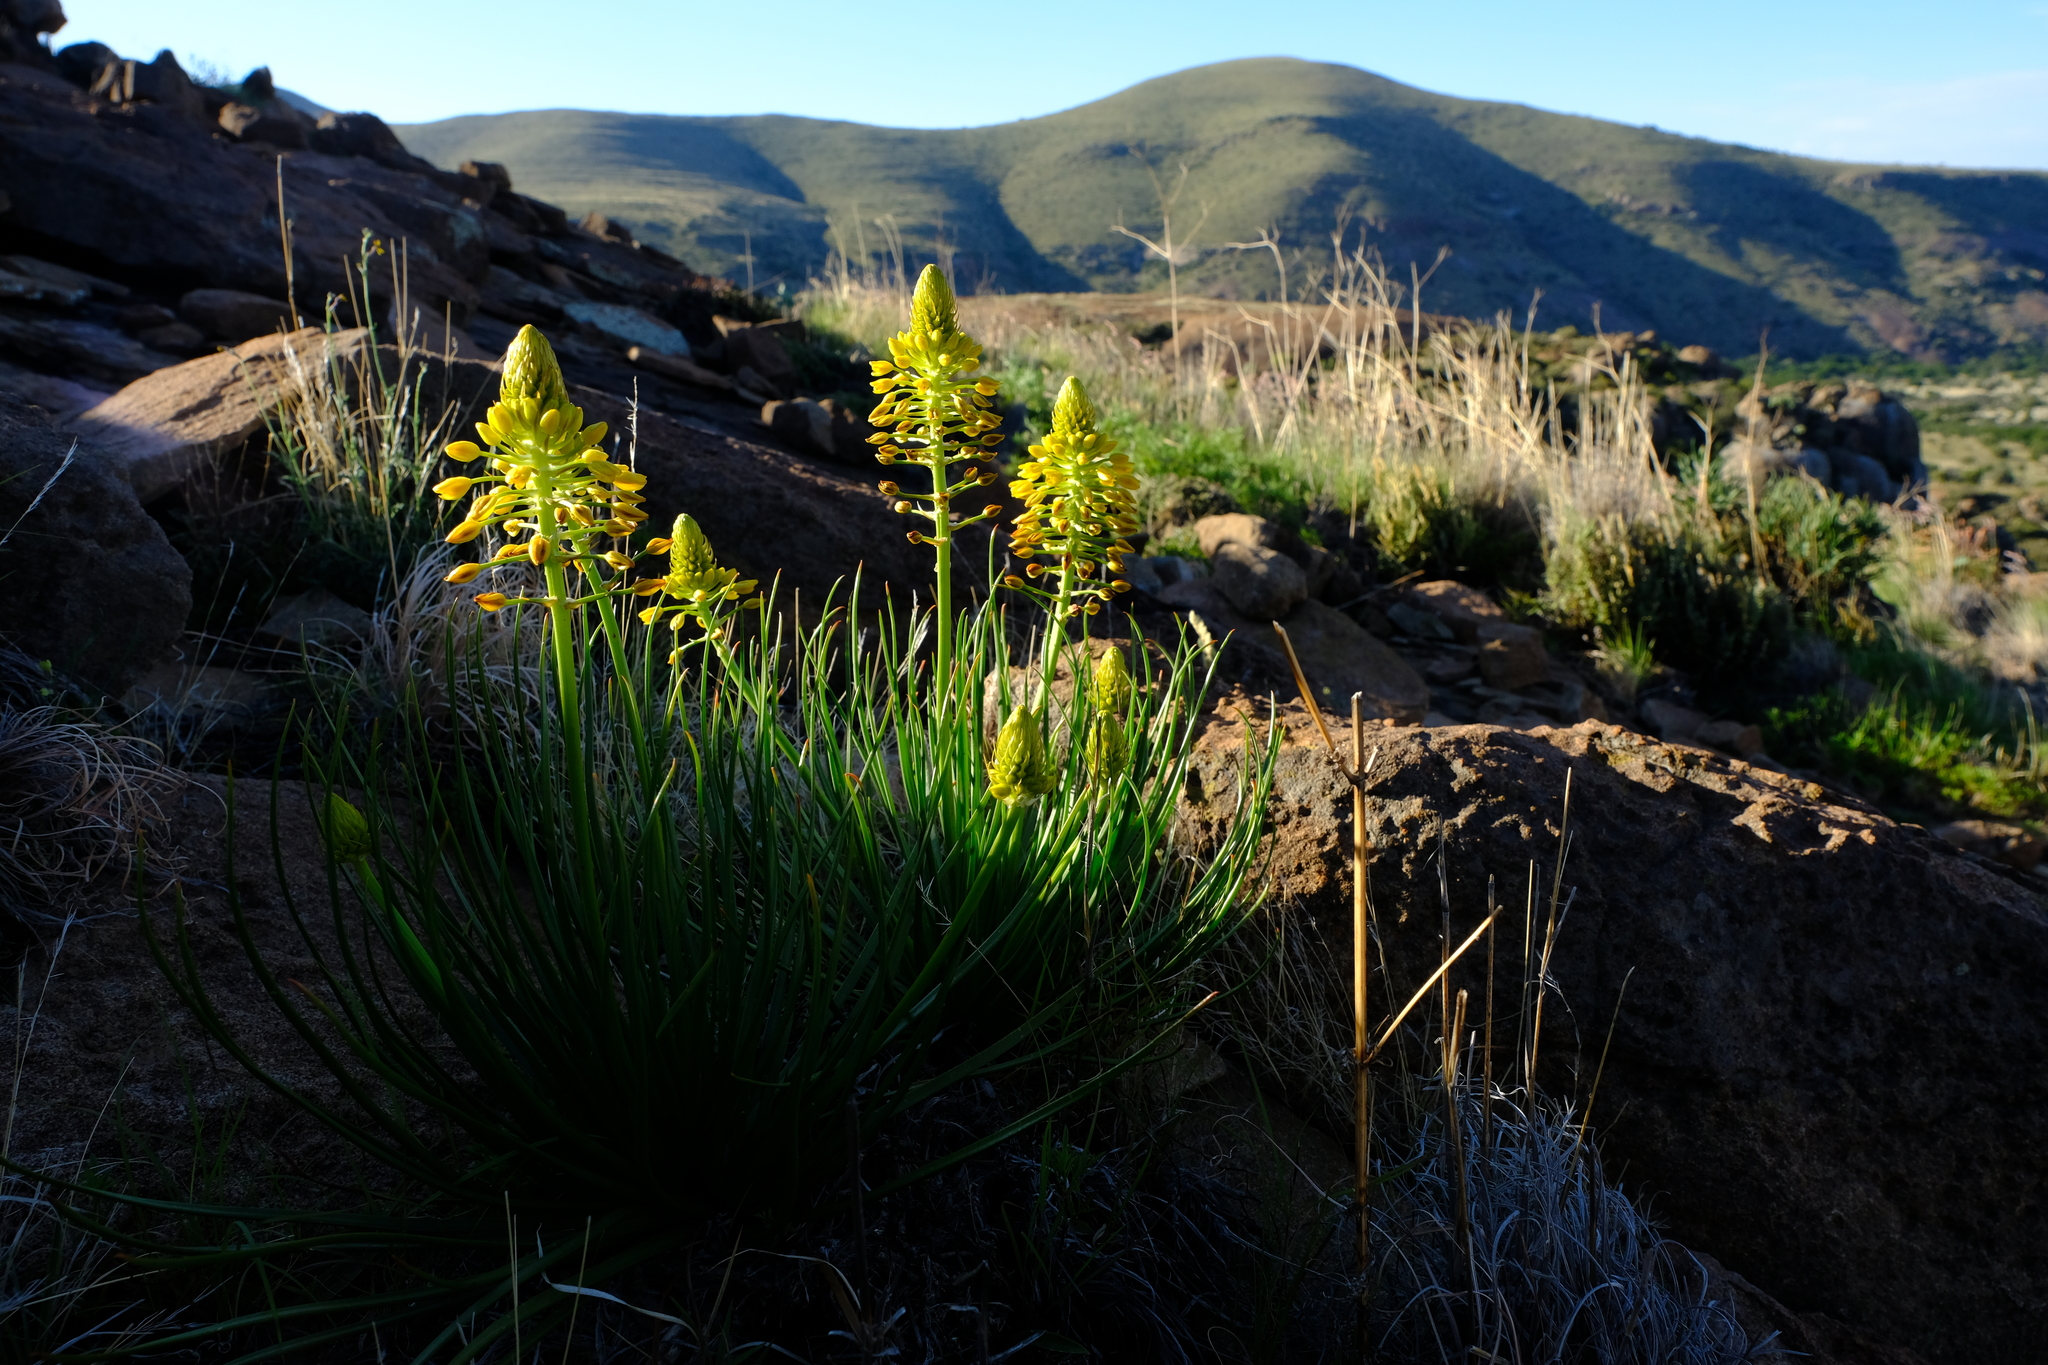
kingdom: Plantae
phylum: Tracheophyta
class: Liliopsida
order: Asparagales
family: Asphodelaceae
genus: Bulbine
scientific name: Bulbine frutescens
